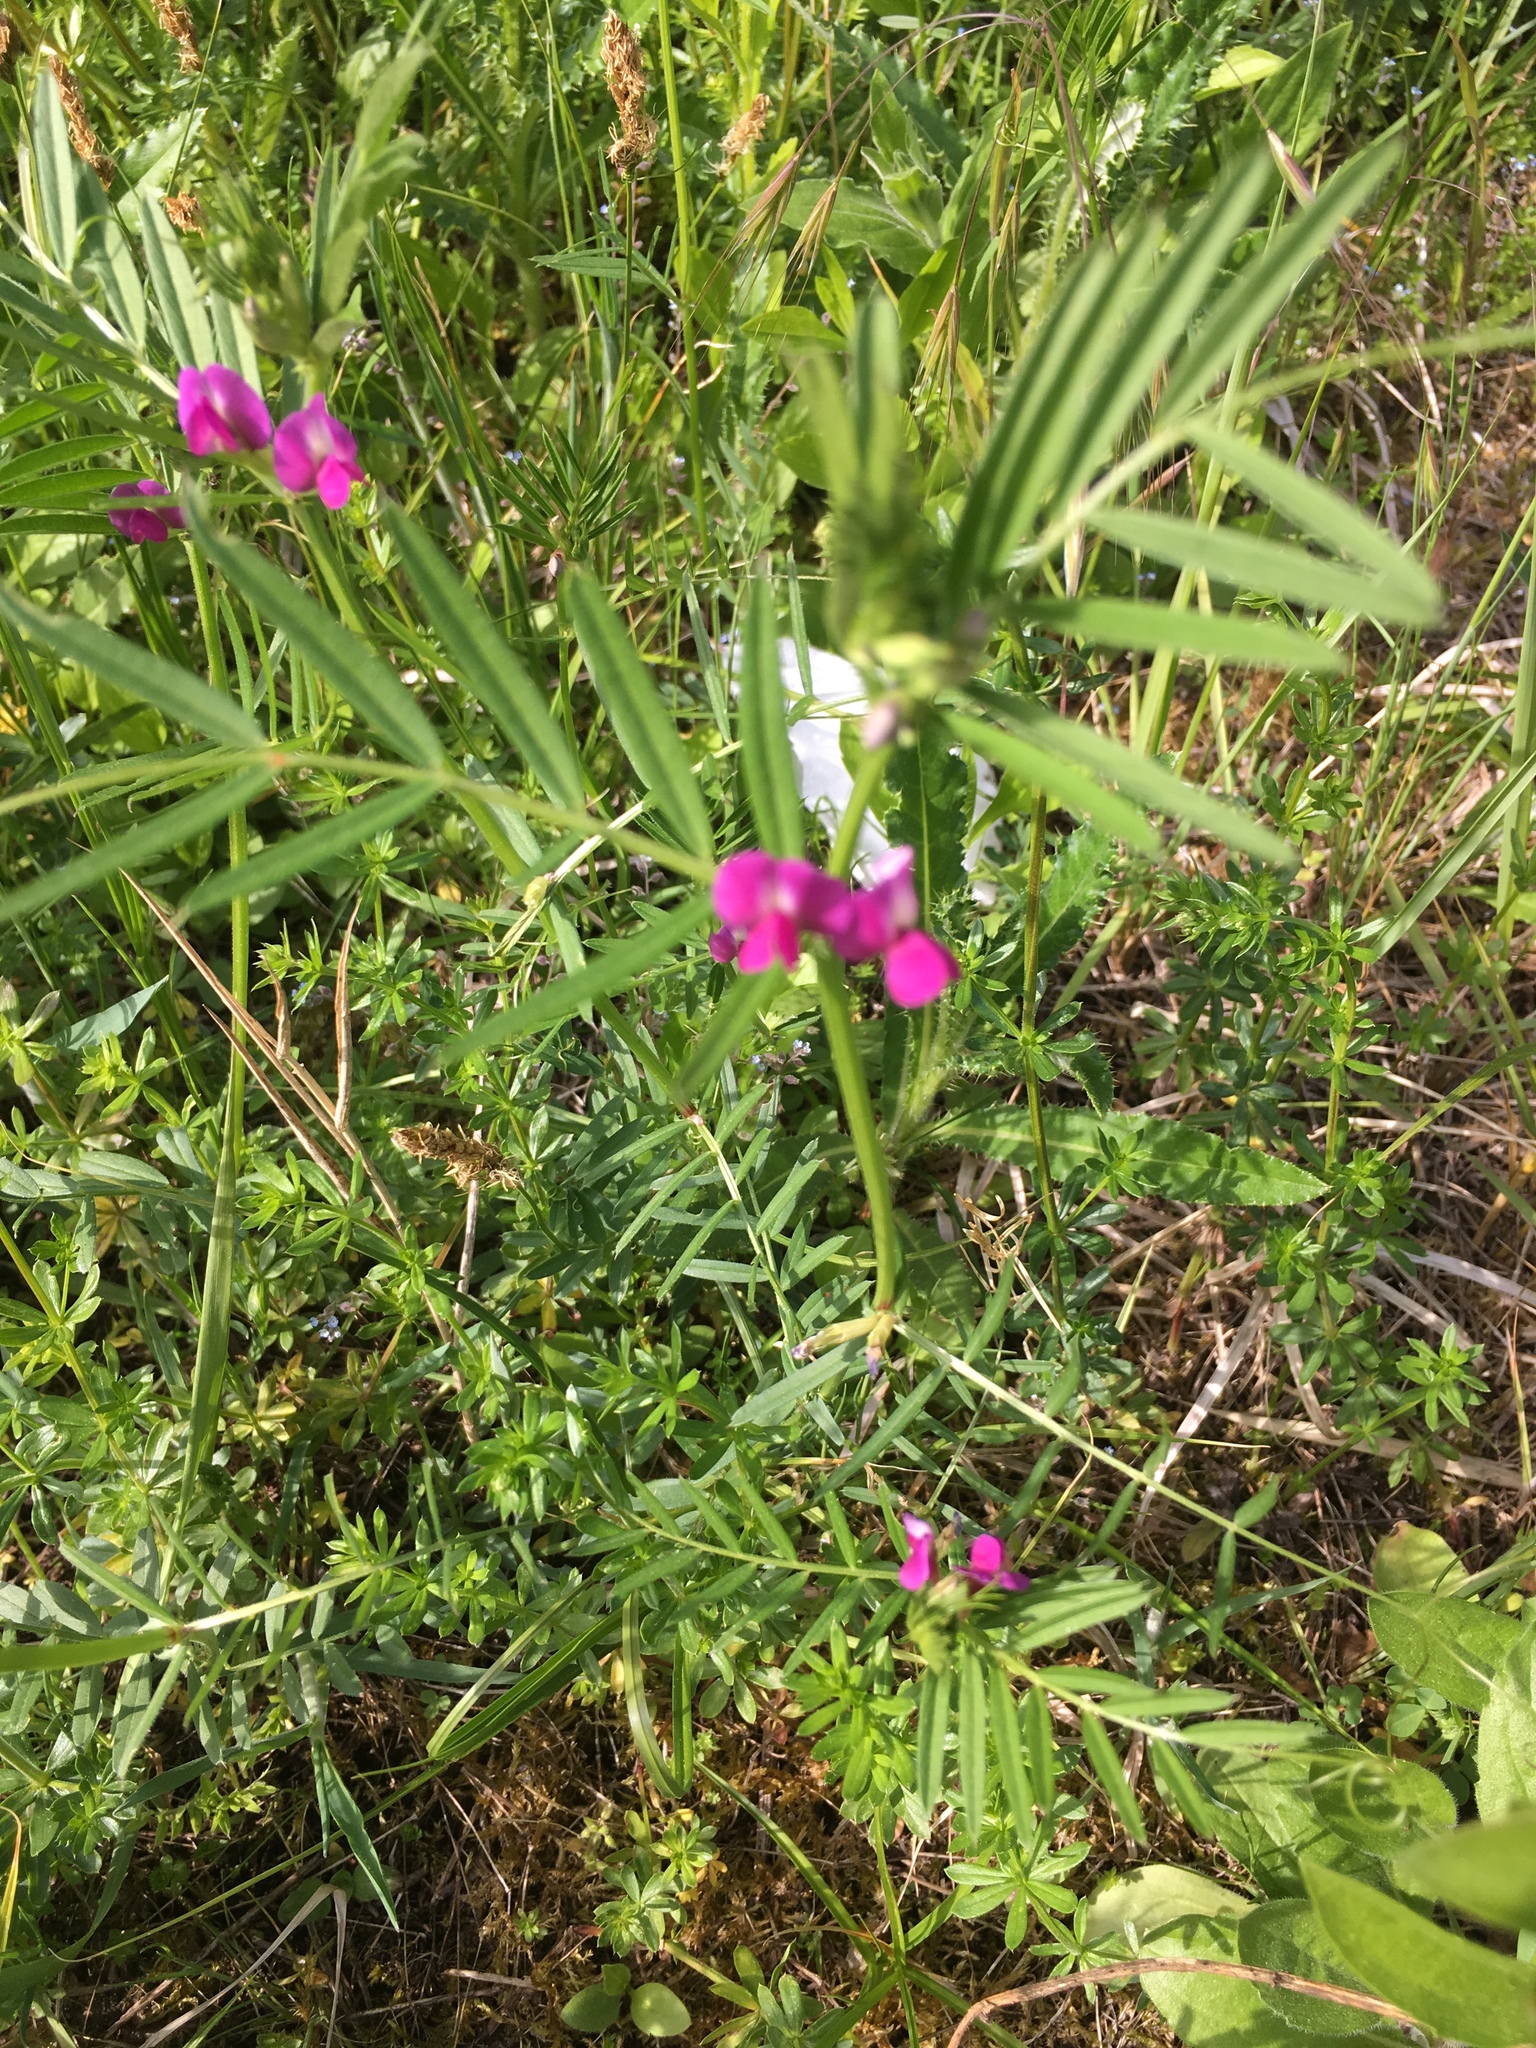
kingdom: Plantae
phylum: Tracheophyta
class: Magnoliopsida
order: Fabales
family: Fabaceae
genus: Vicia
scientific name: Vicia sativa
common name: Garden vetch
